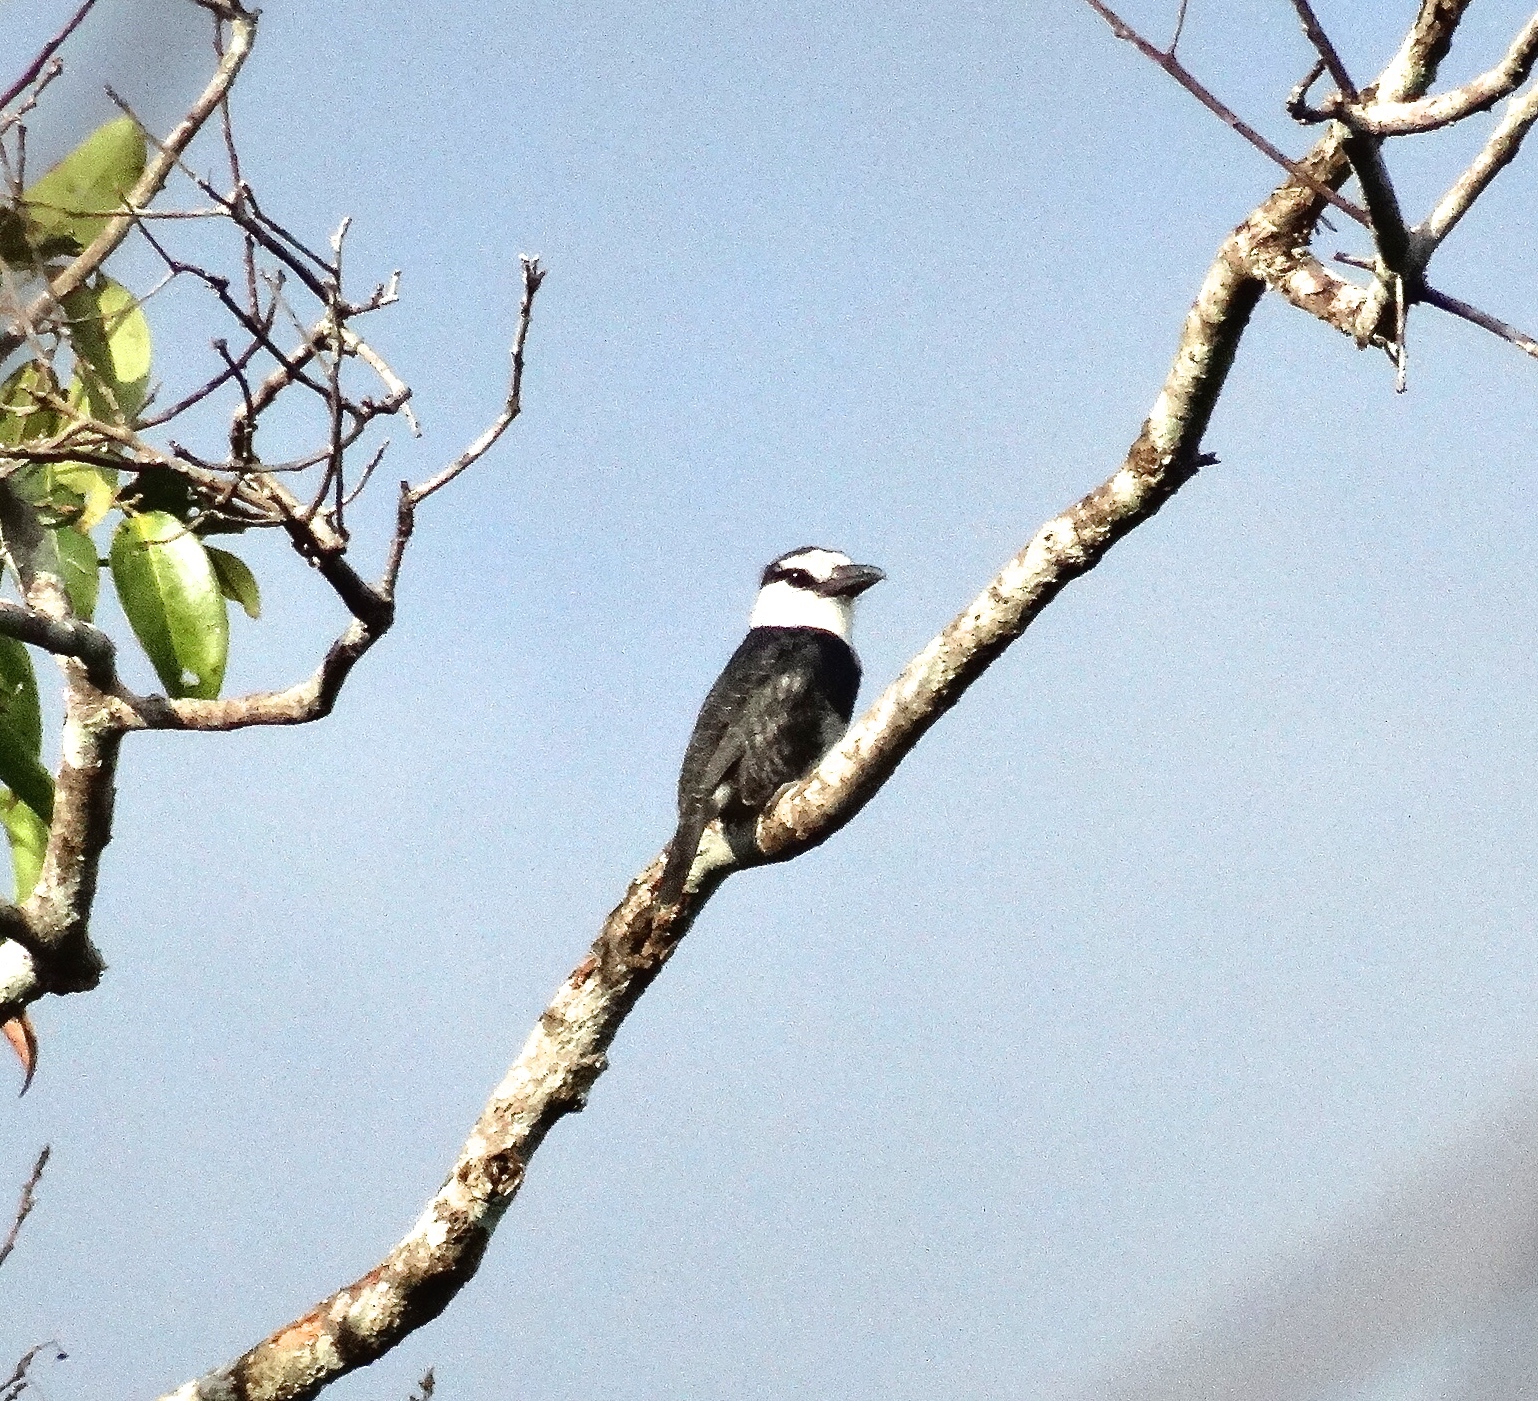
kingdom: Animalia
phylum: Chordata
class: Aves
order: Piciformes
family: Bucconidae
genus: Notharchus
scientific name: Notharchus hyperrhynchus
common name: White-necked puffbird
